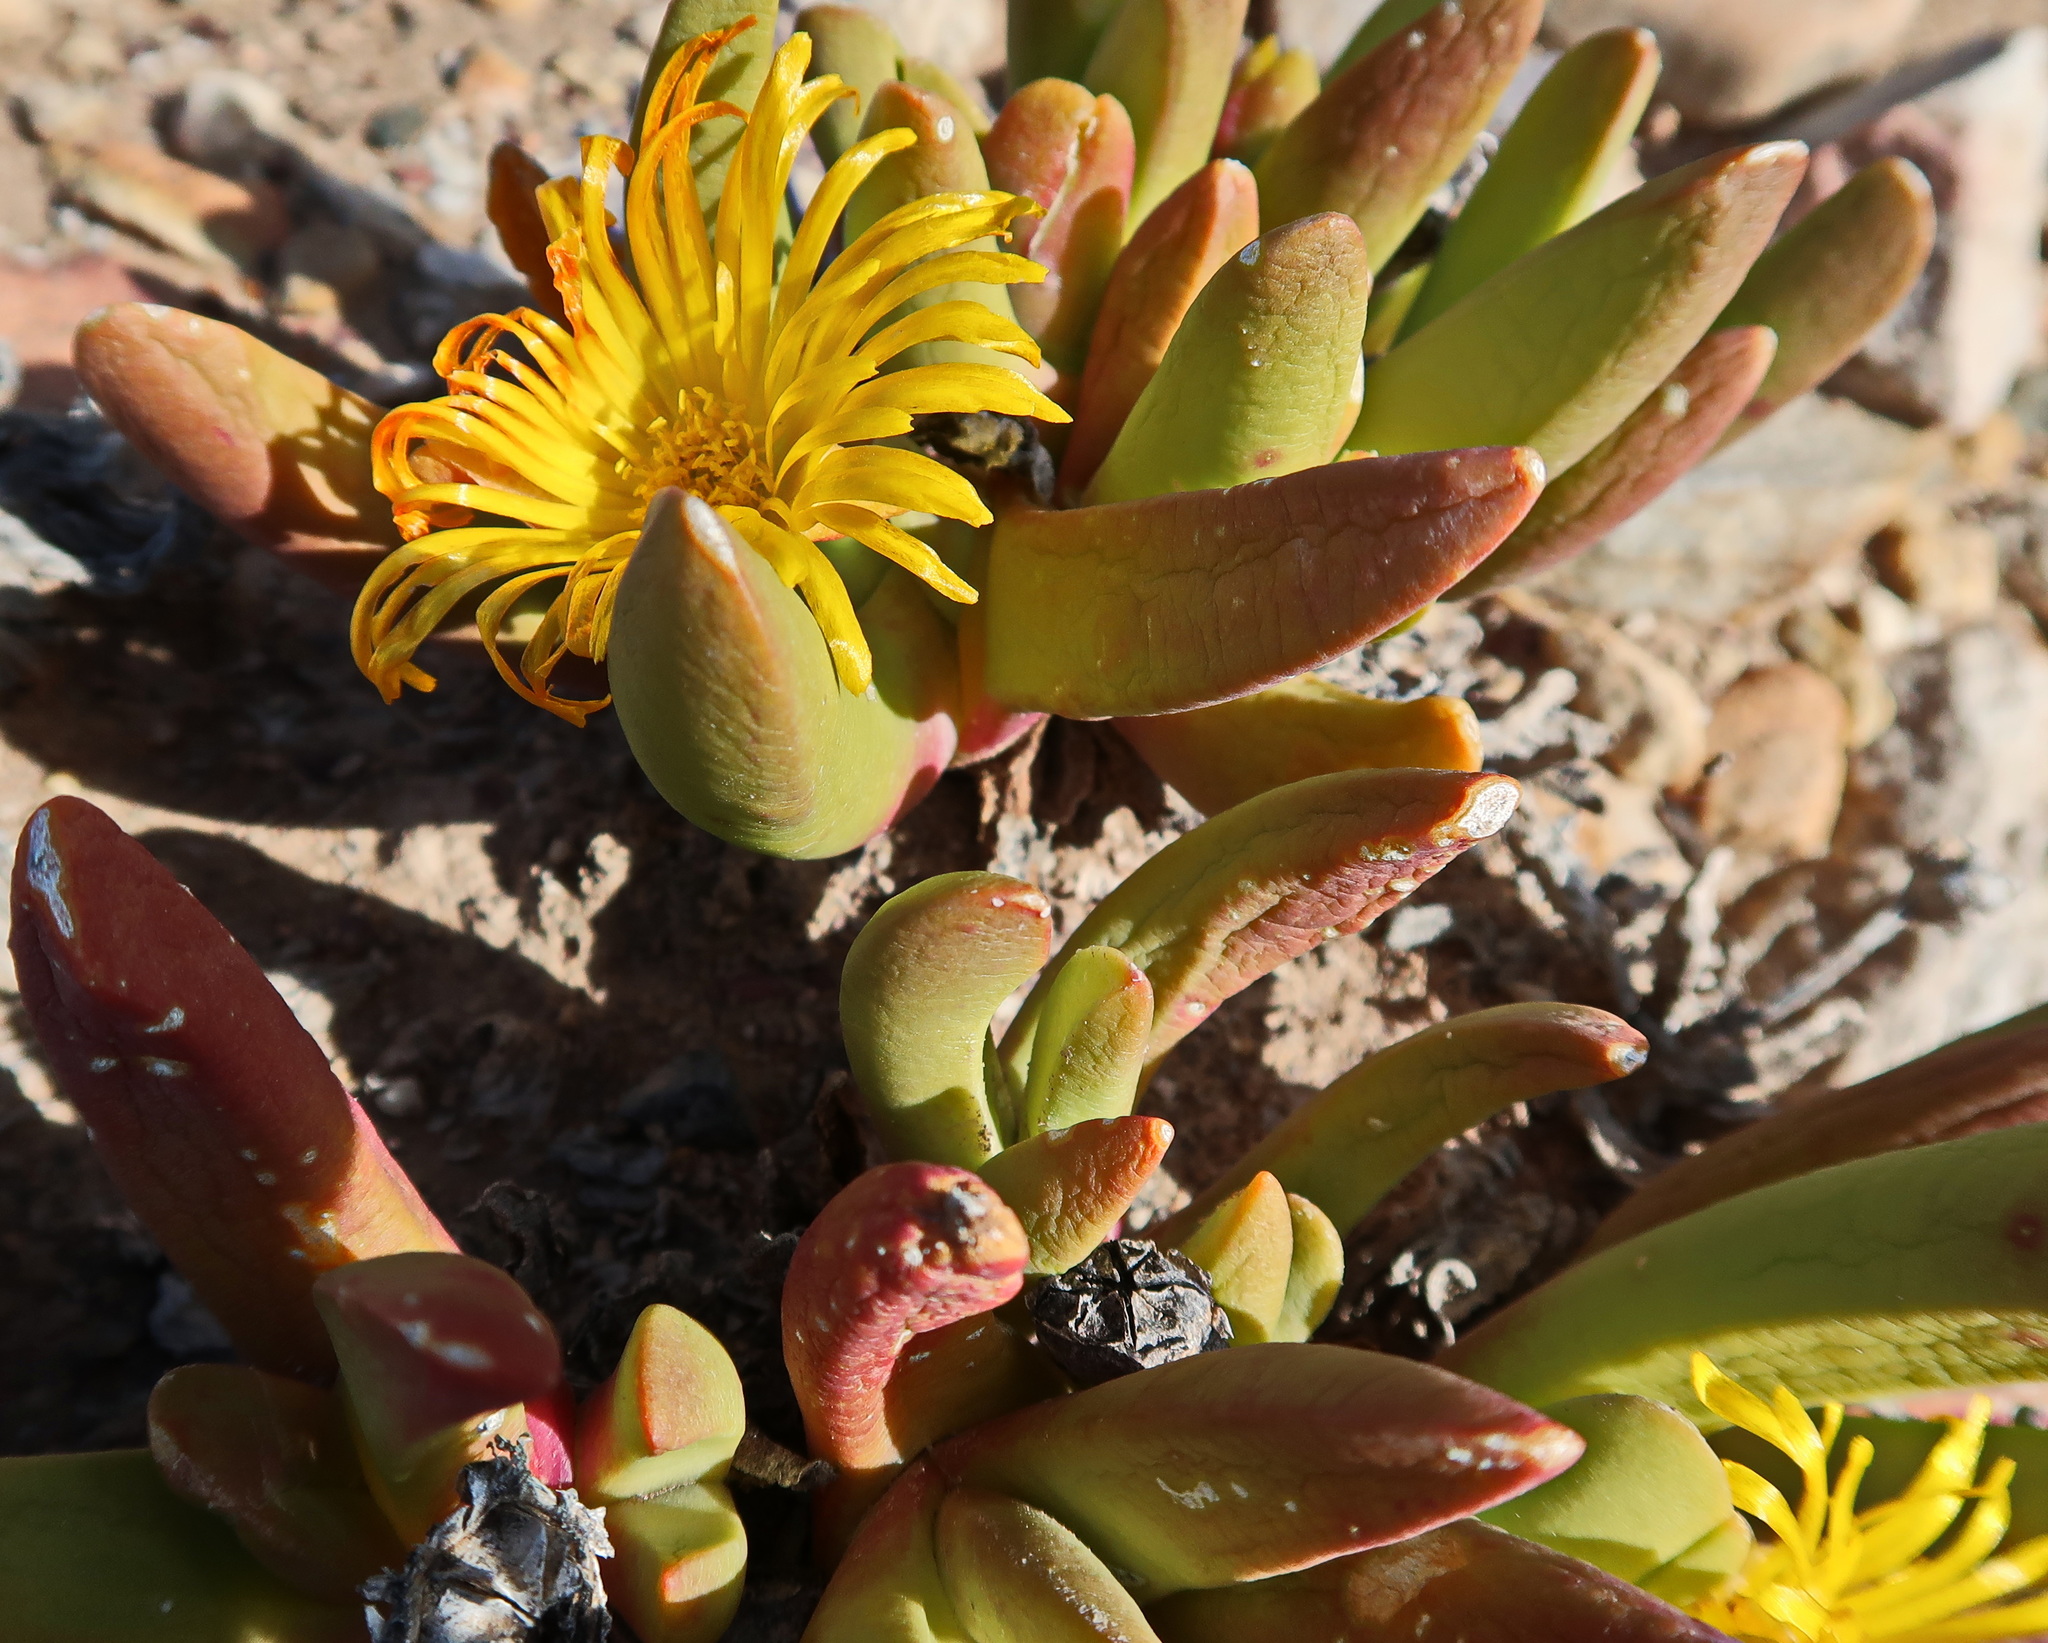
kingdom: Plantae
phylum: Tracheophyta
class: Magnoliopsida
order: Caryophyllales
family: Aizoaceae
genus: Glottiphyllum
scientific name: Glottiphyllum regium
